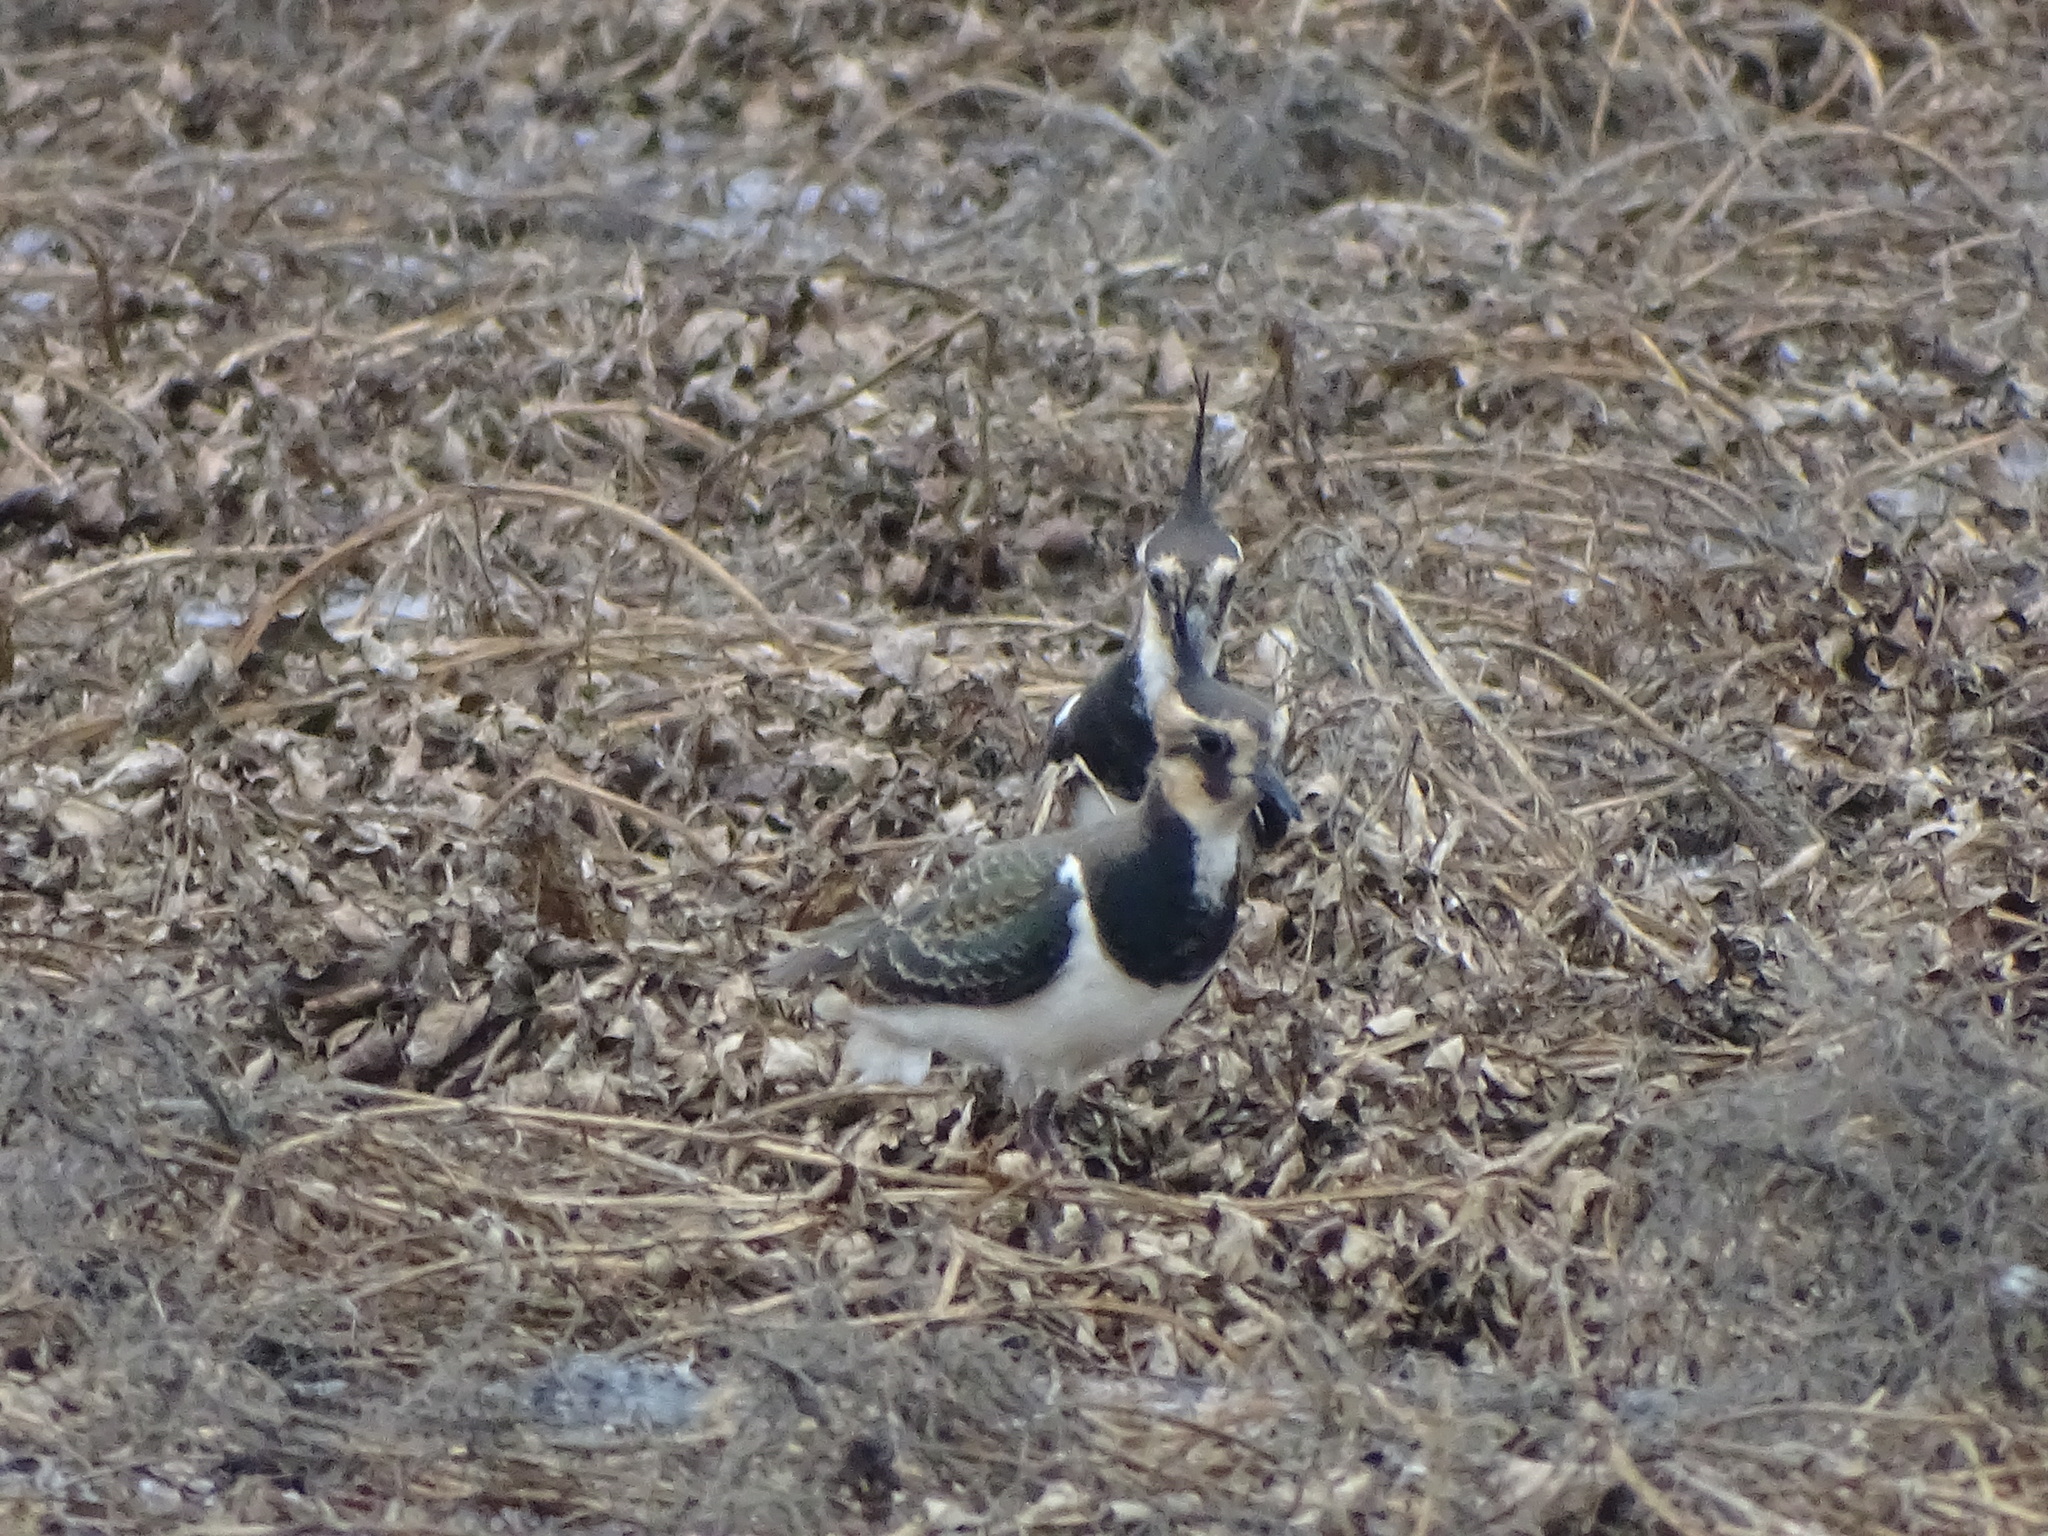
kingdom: Animalia
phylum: Chordata
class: Aves
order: Charadriiformes
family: Charadriidae
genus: Vanellus
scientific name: Vanellus vanellus
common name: Northern lapwing
